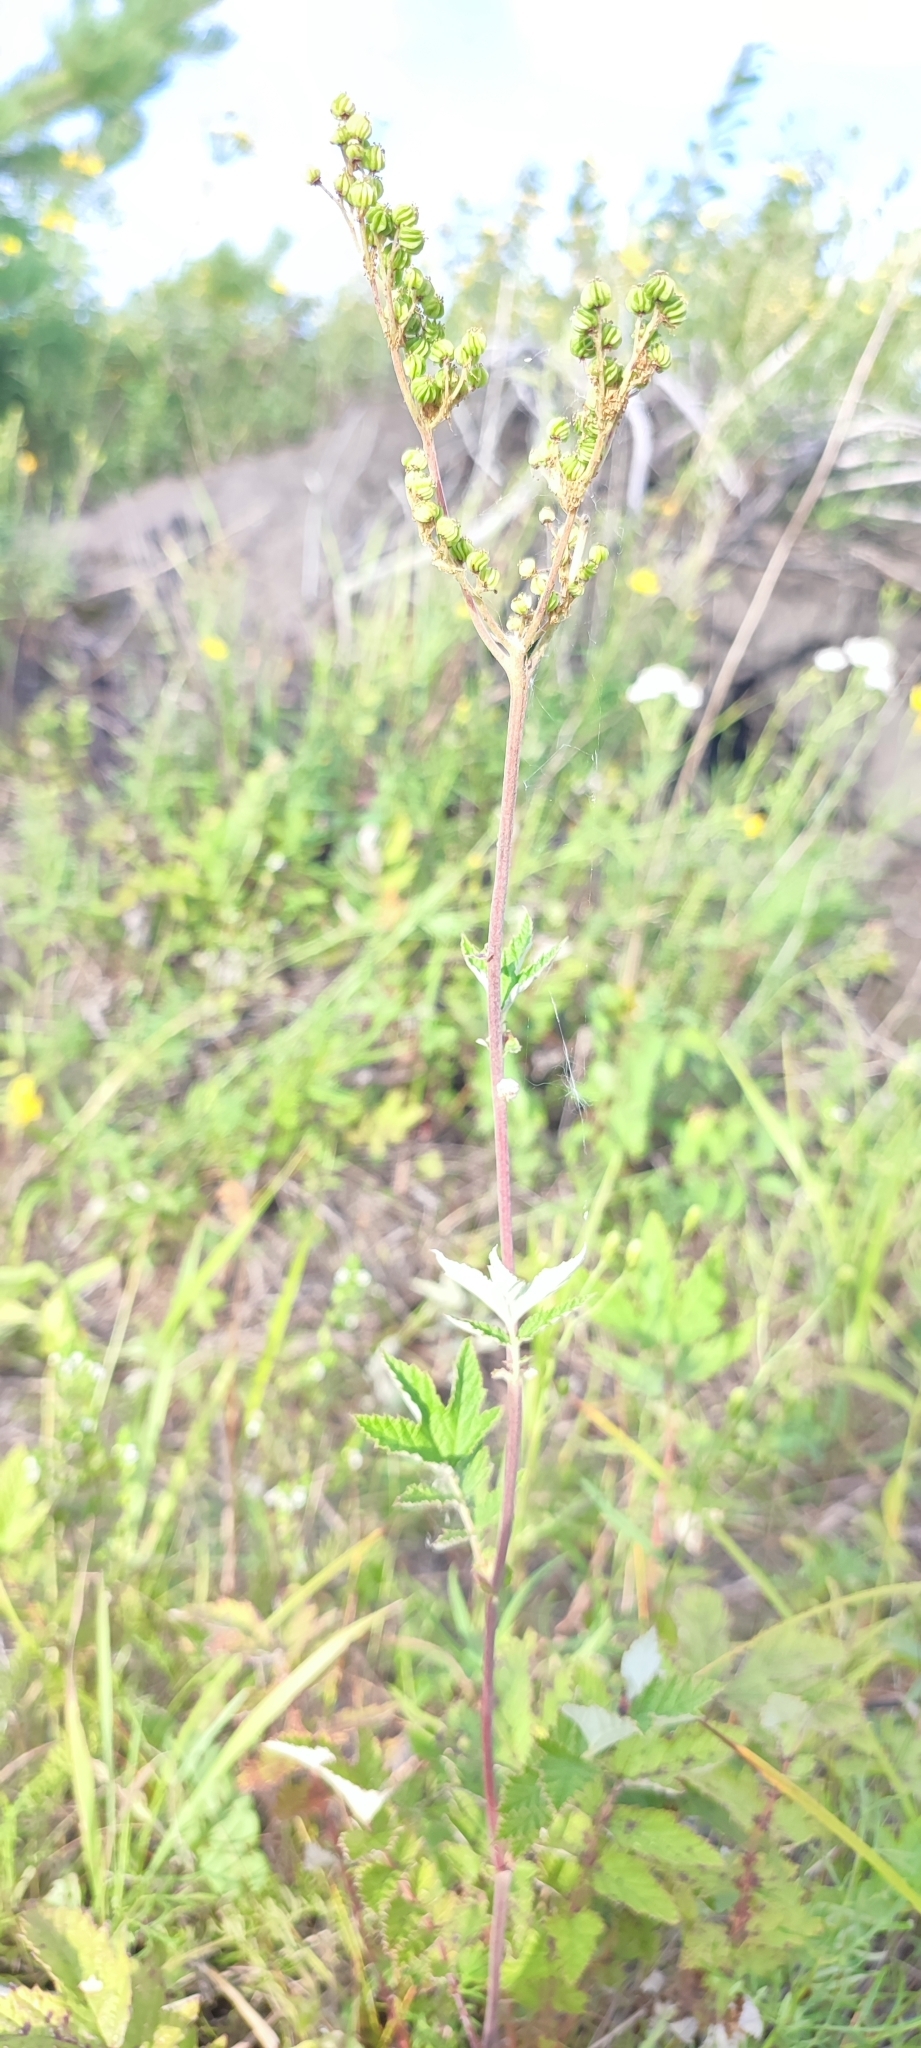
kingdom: Plantae
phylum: Tracheophyta
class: Magnoliopsida
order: Rosales
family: Rosaceae
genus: Filipendula
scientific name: Filipendula ulmaria
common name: Meadowsweet
